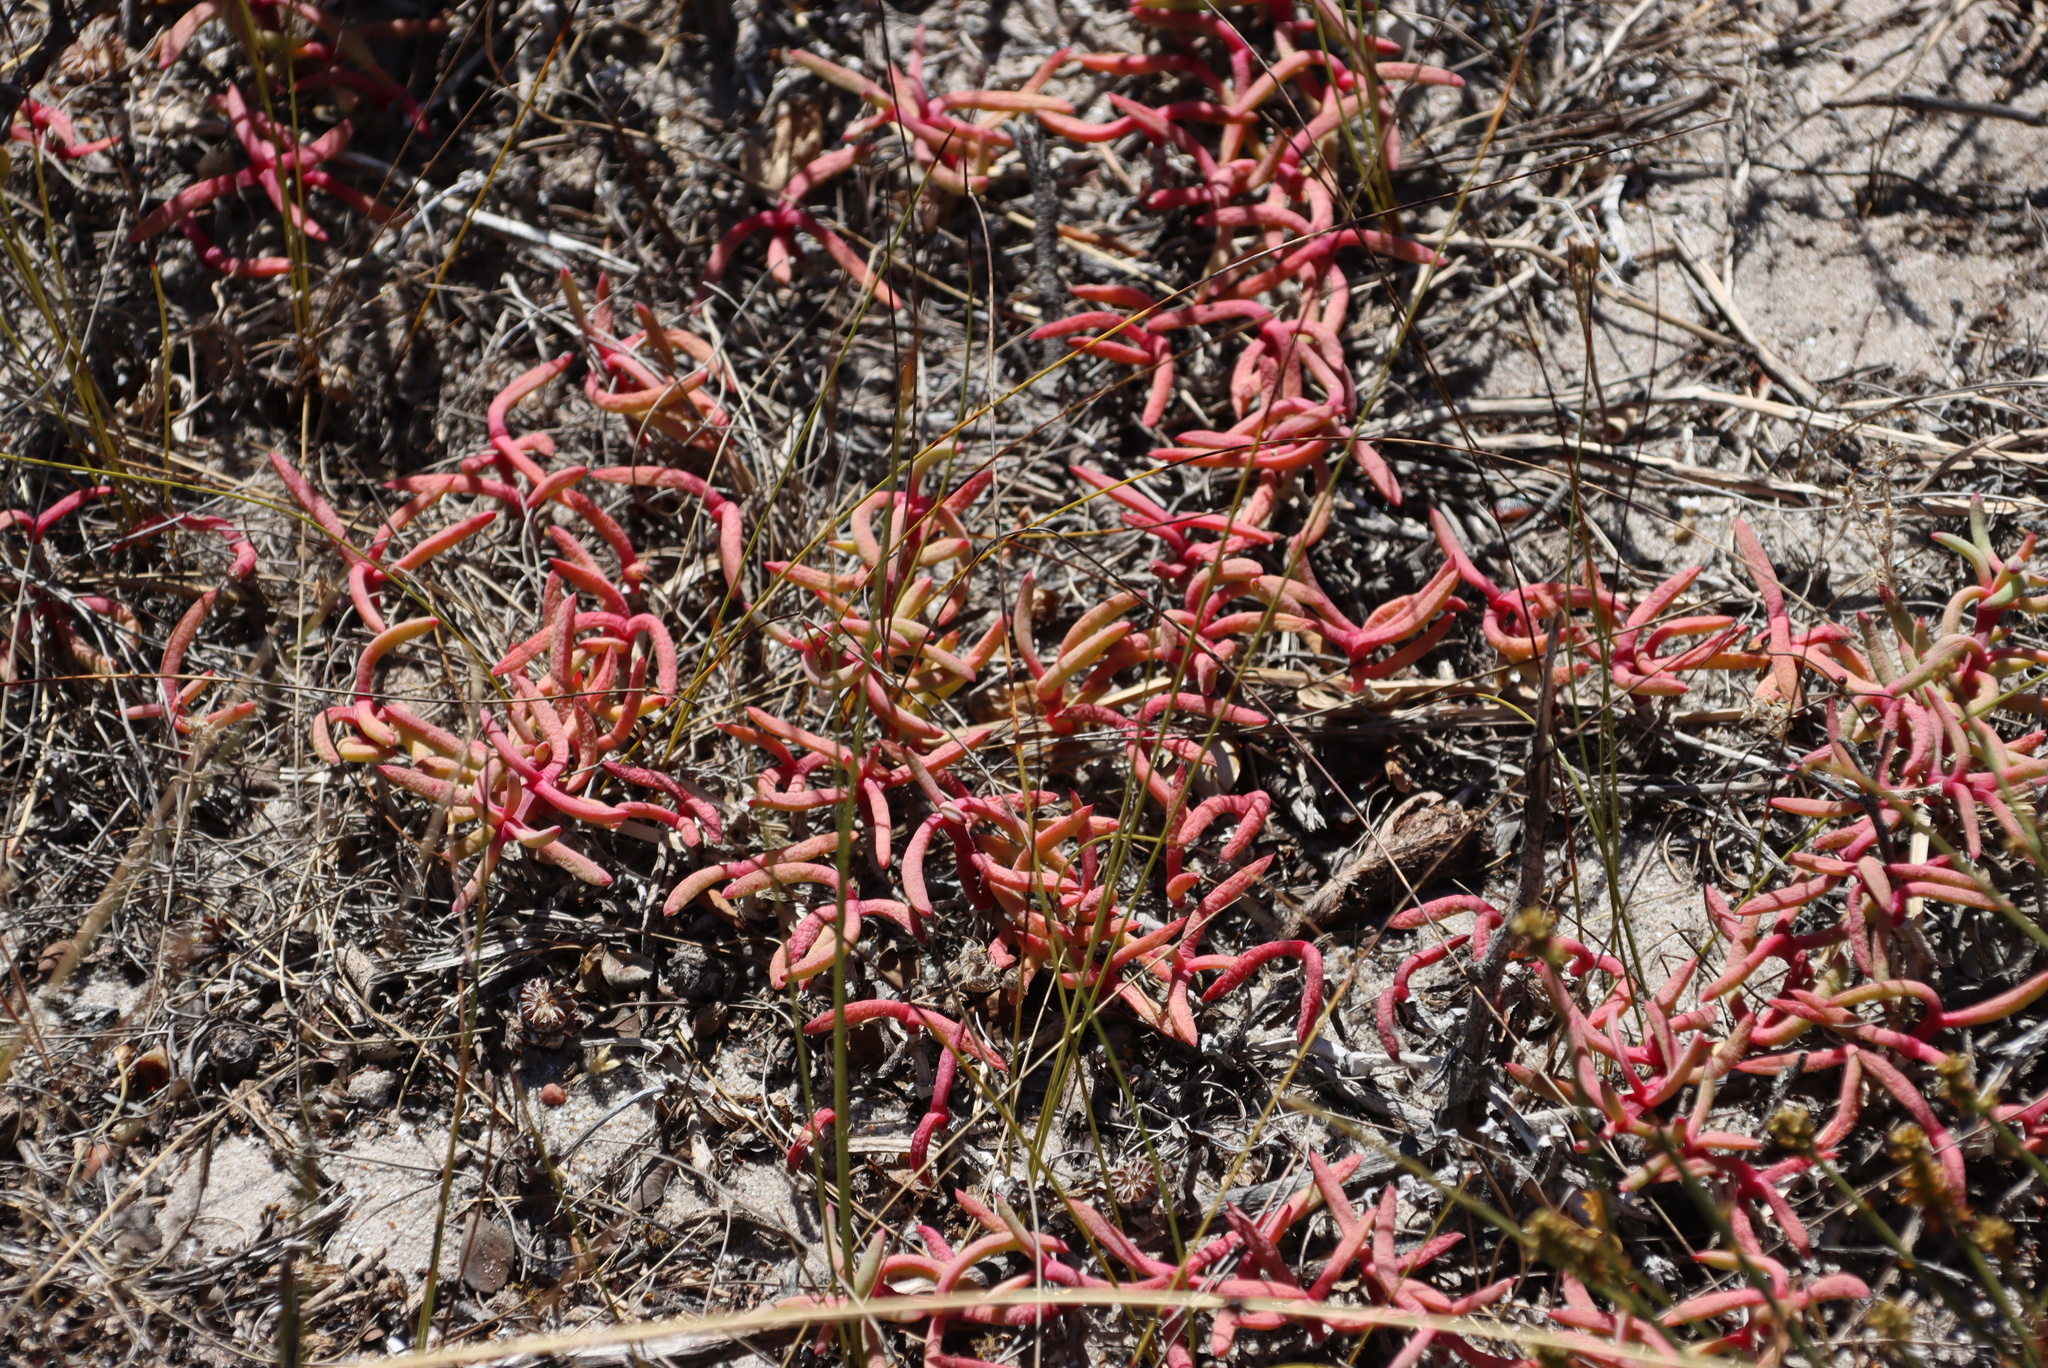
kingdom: Plantae
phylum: Tracheophyta
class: Magnoliopsida
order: Caryophyllales
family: Aizoaceae
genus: Jordaaniella
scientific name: Jordaaniella dubia
